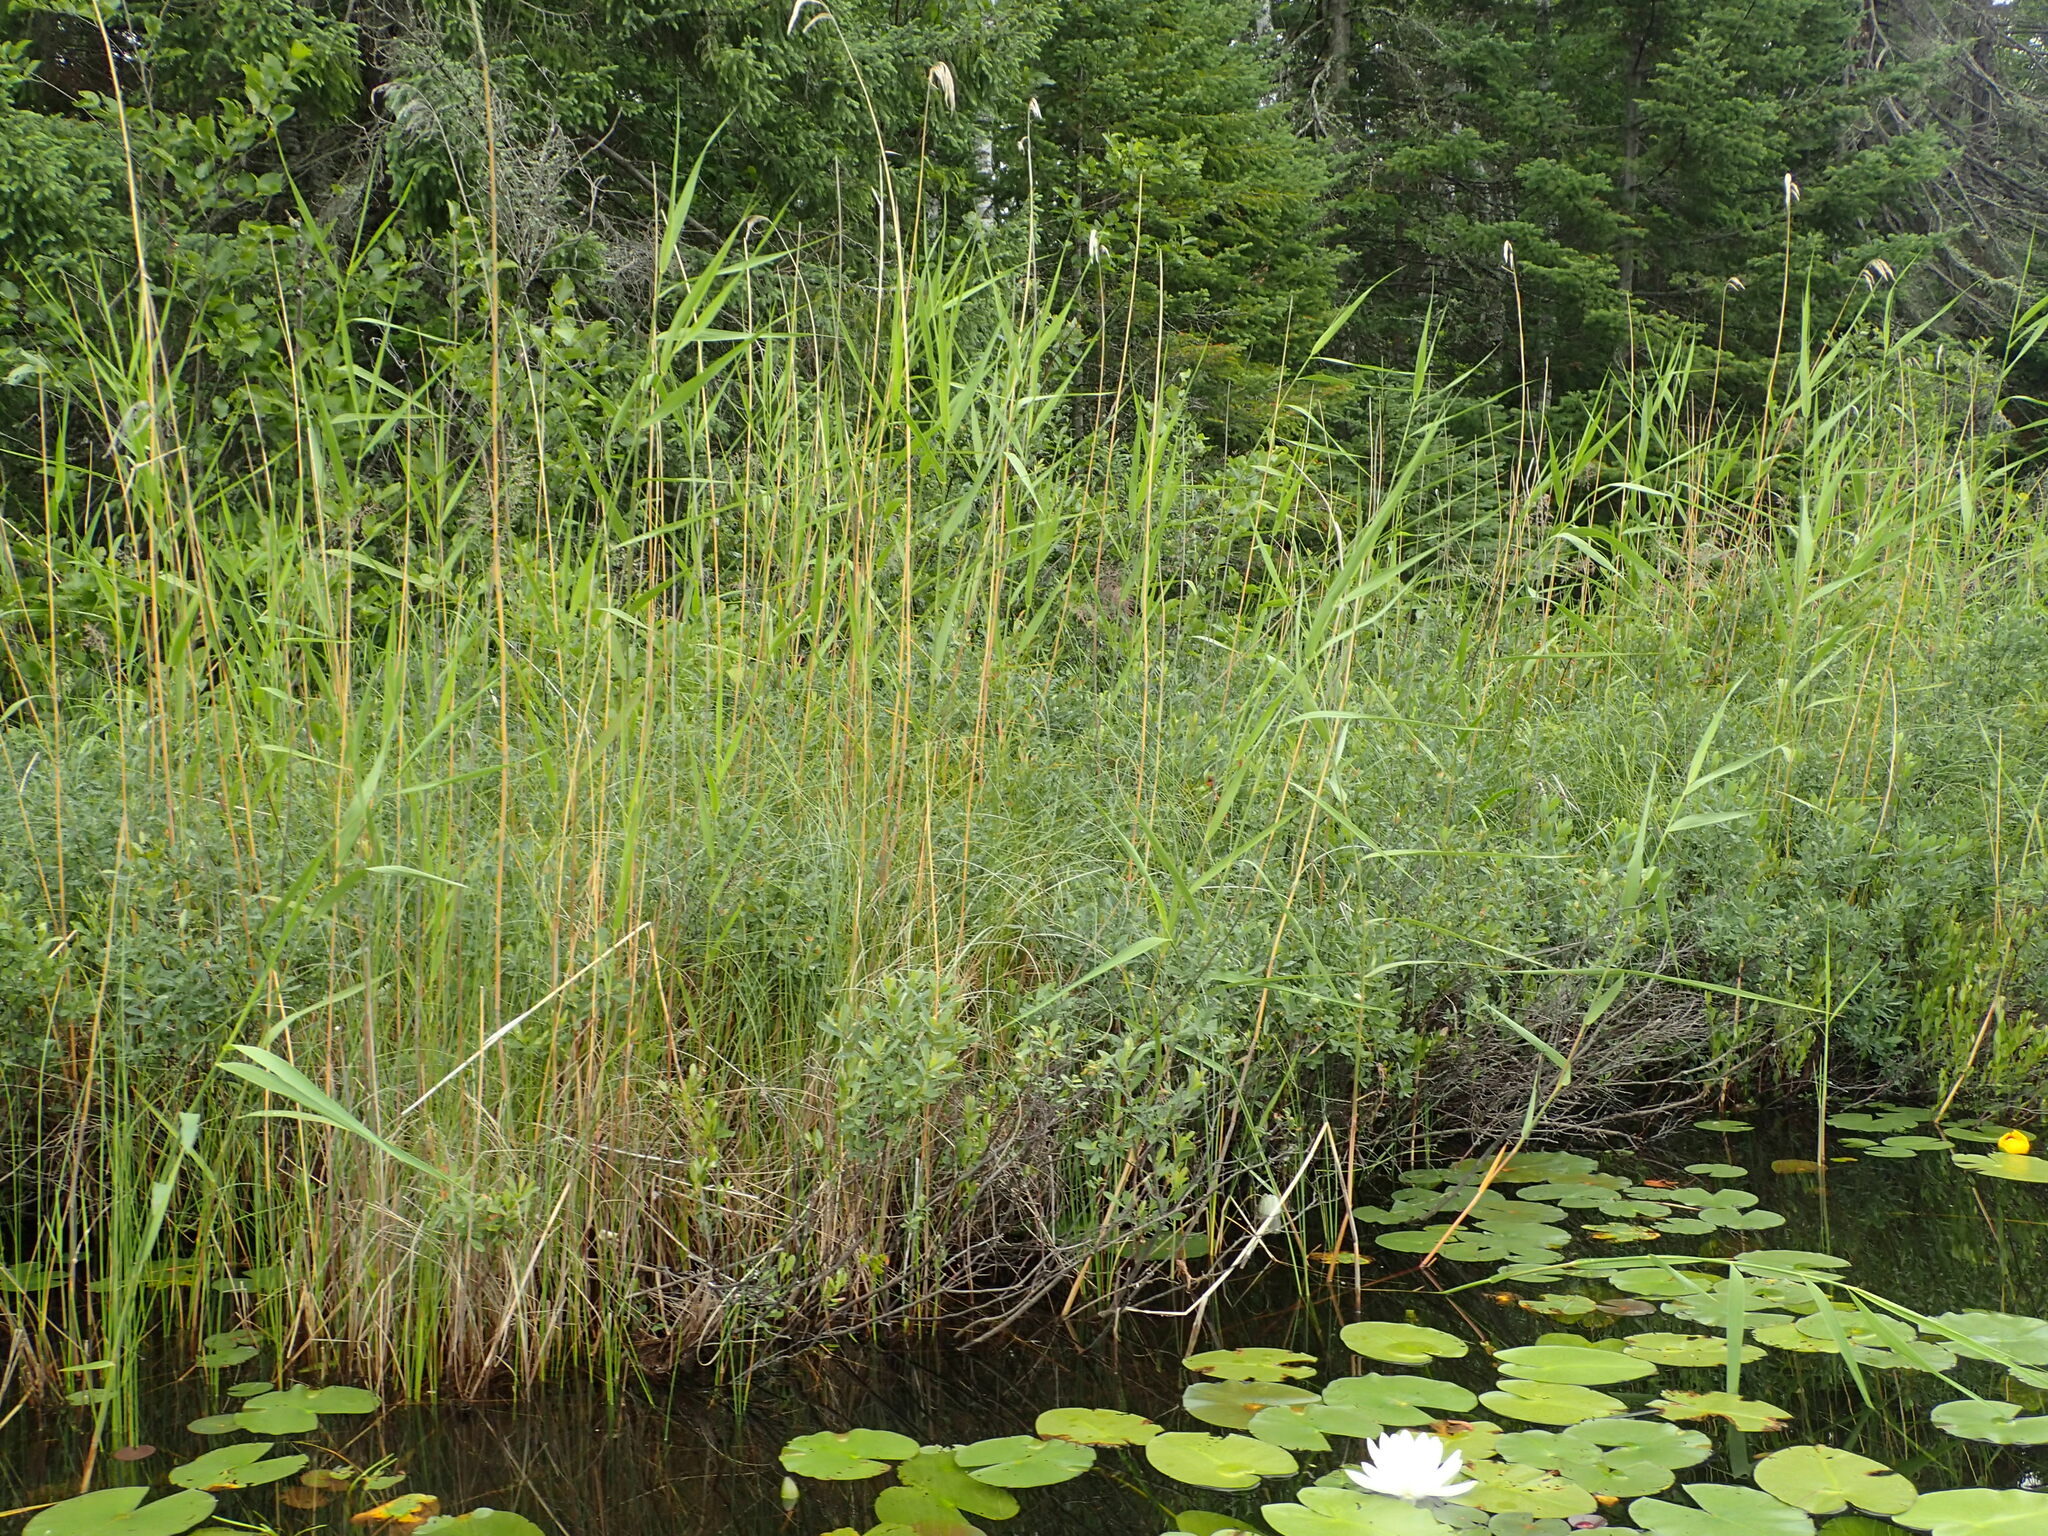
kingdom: Plantae
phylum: Tracheophyta
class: Liliopsida
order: Poales
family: Poaceae
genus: Phragmites
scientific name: Phragmites australis
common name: Common reed
